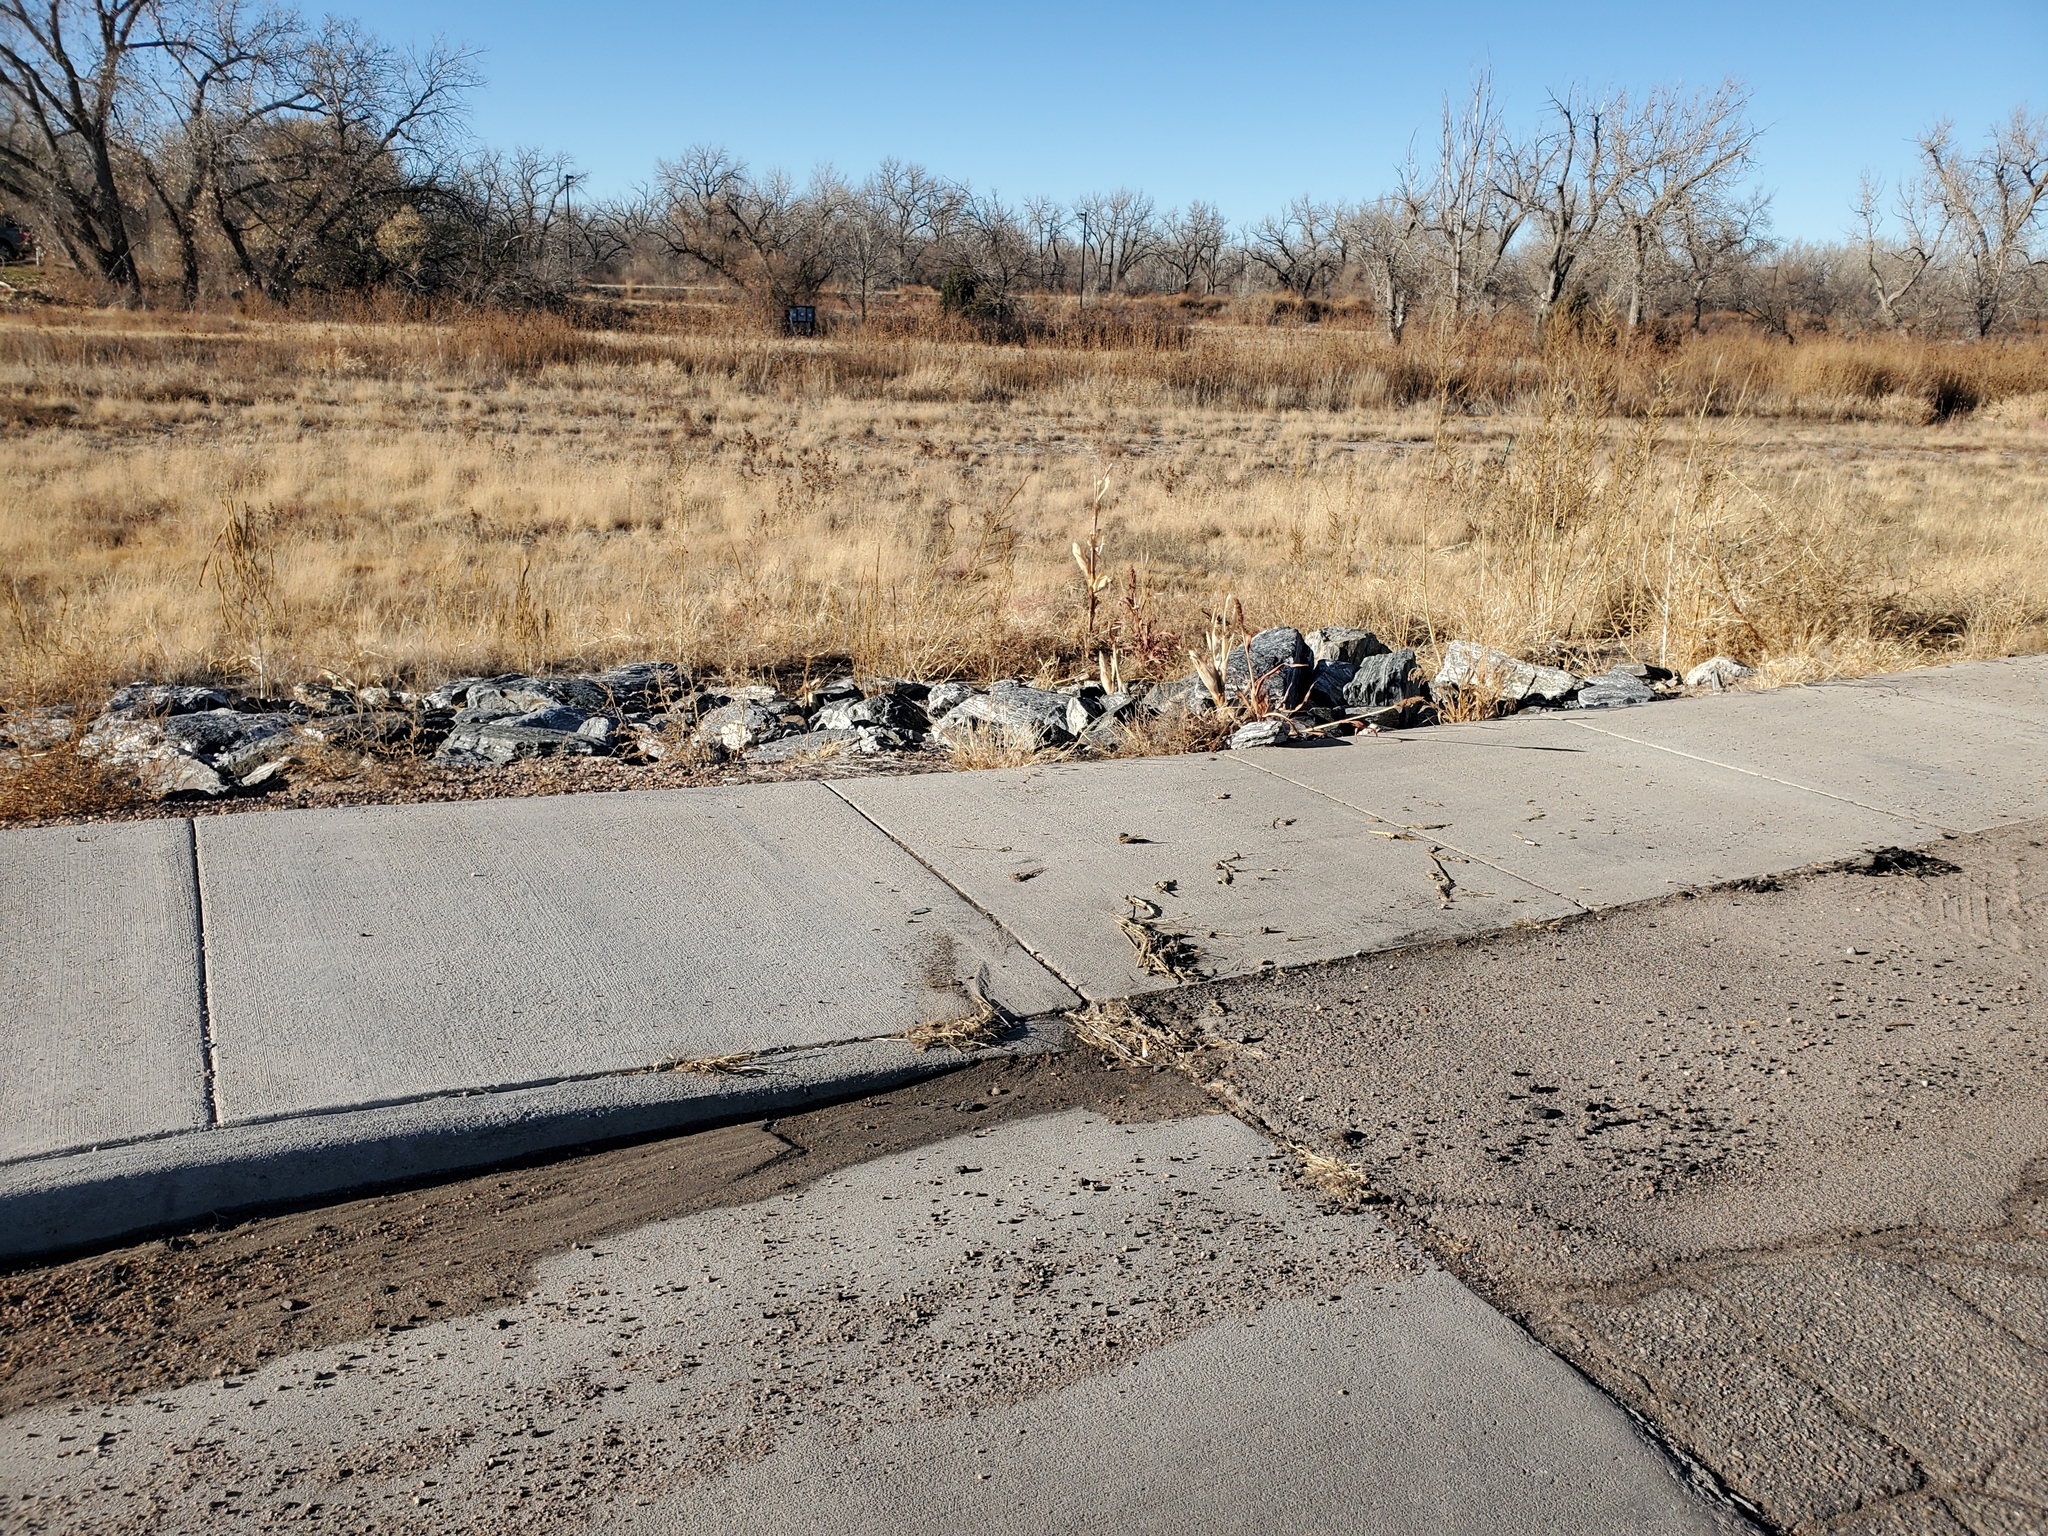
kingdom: Plantae
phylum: Tracheophyta
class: Liliopsida
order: Poales
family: Poaceae
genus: Sorghum
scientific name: Sorghum bicolor
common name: Sorghum
